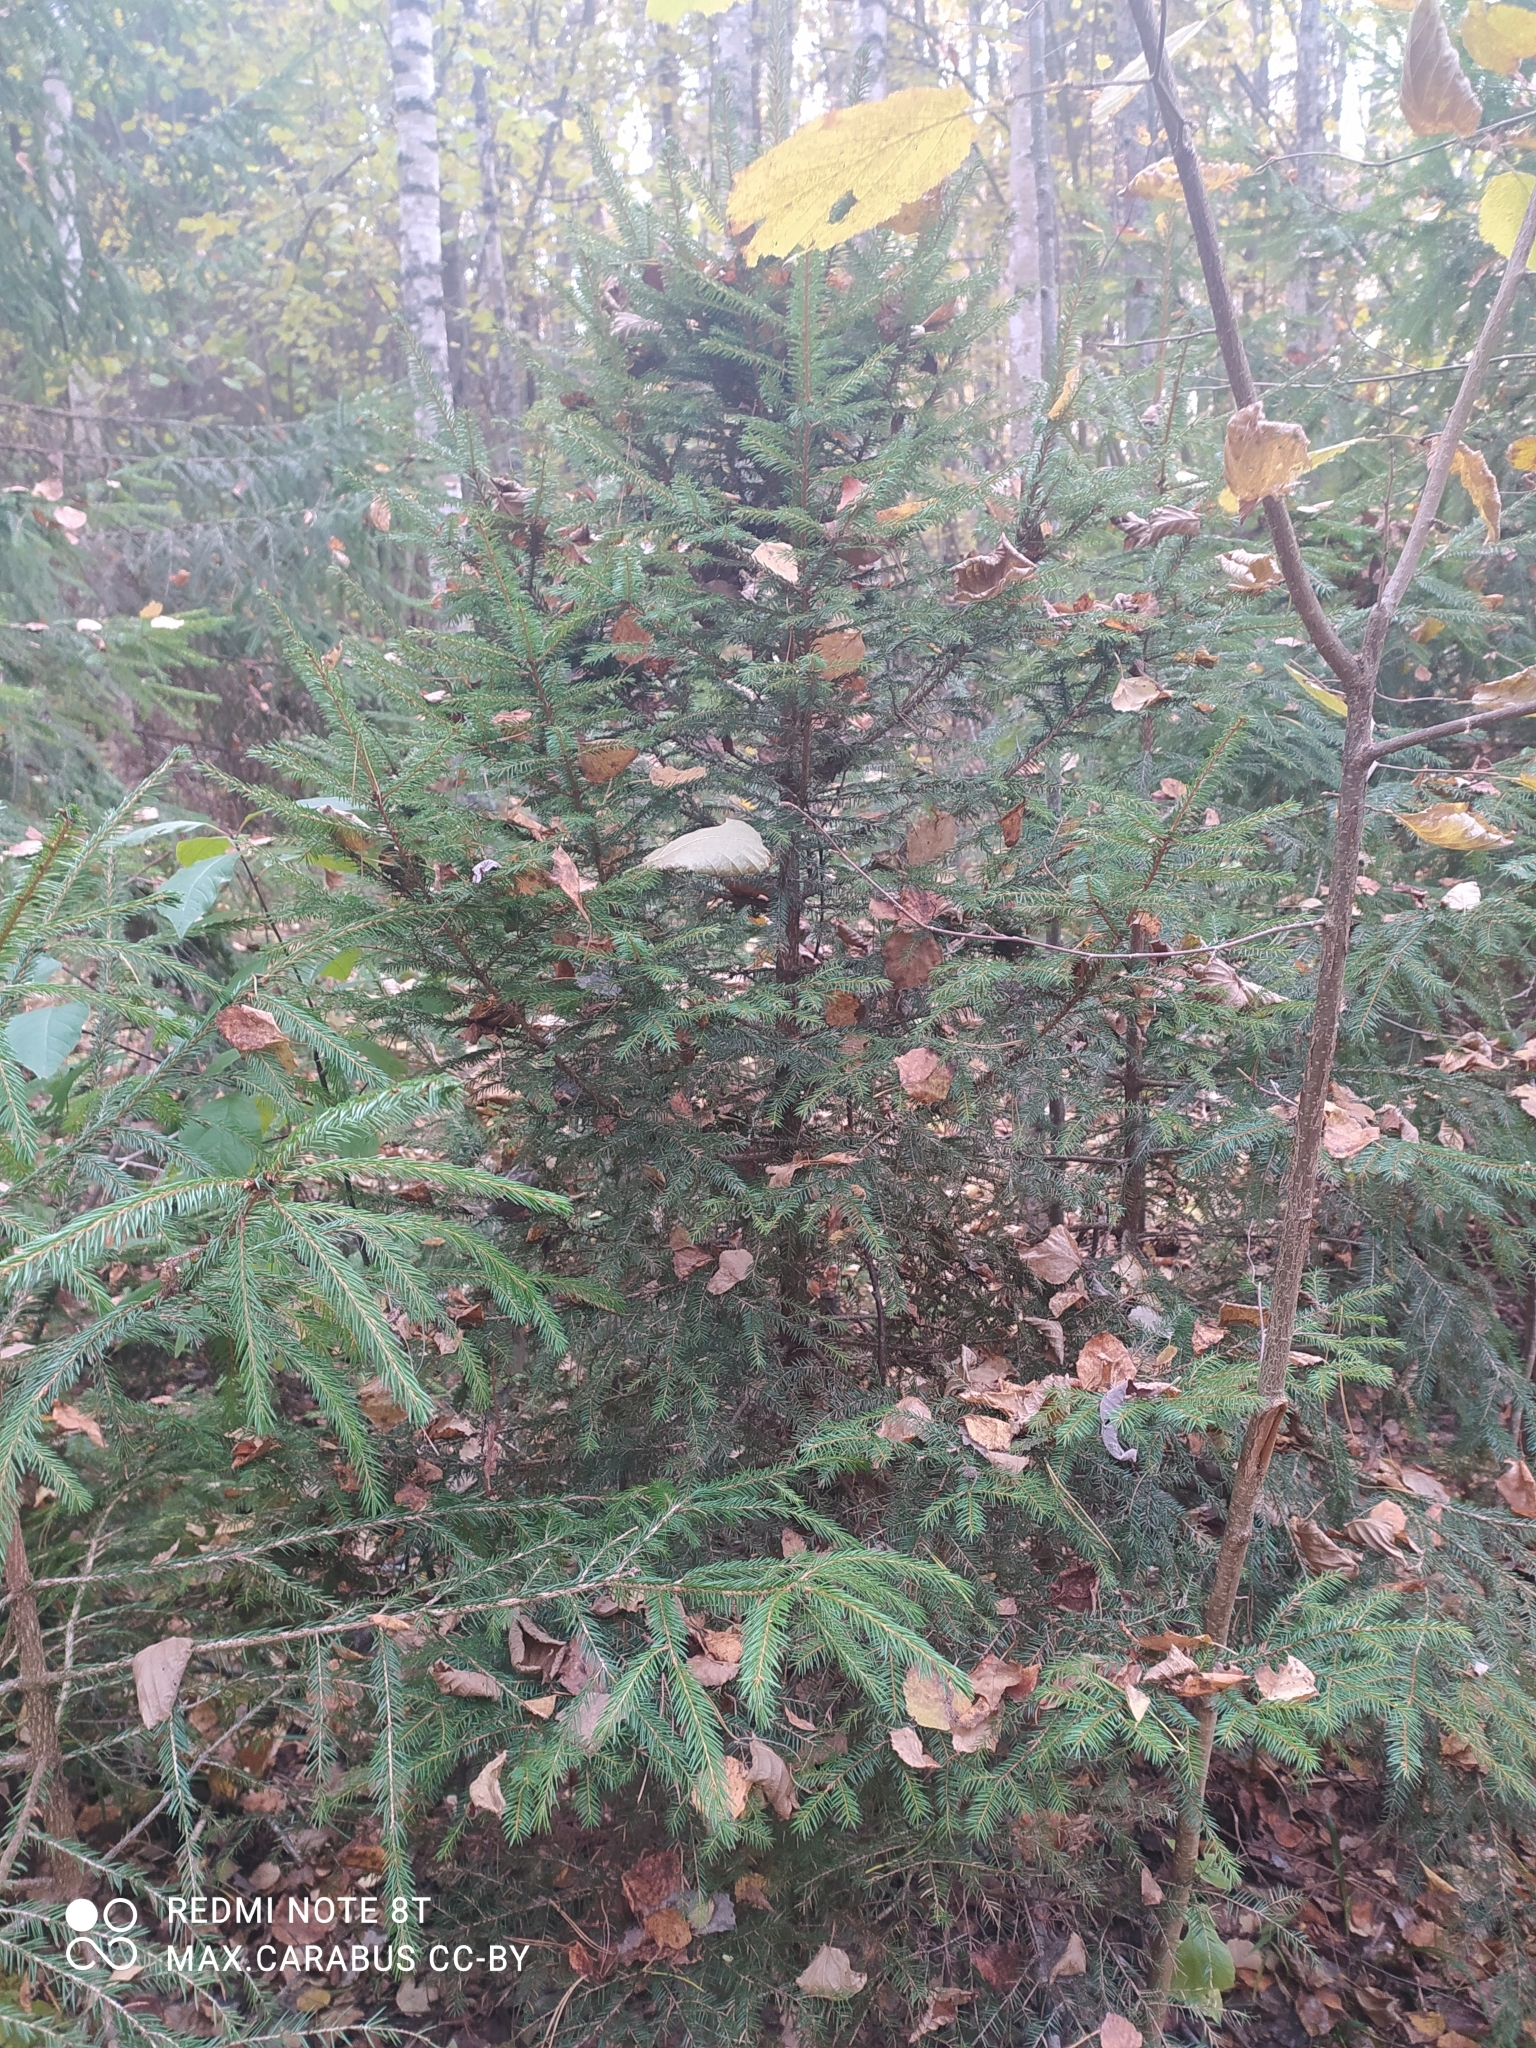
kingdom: Plantae
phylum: Tracheophyta
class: Pinopsida
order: Pinales
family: Pinaceae
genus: Picea
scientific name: Picea abies
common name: Norway spruce
